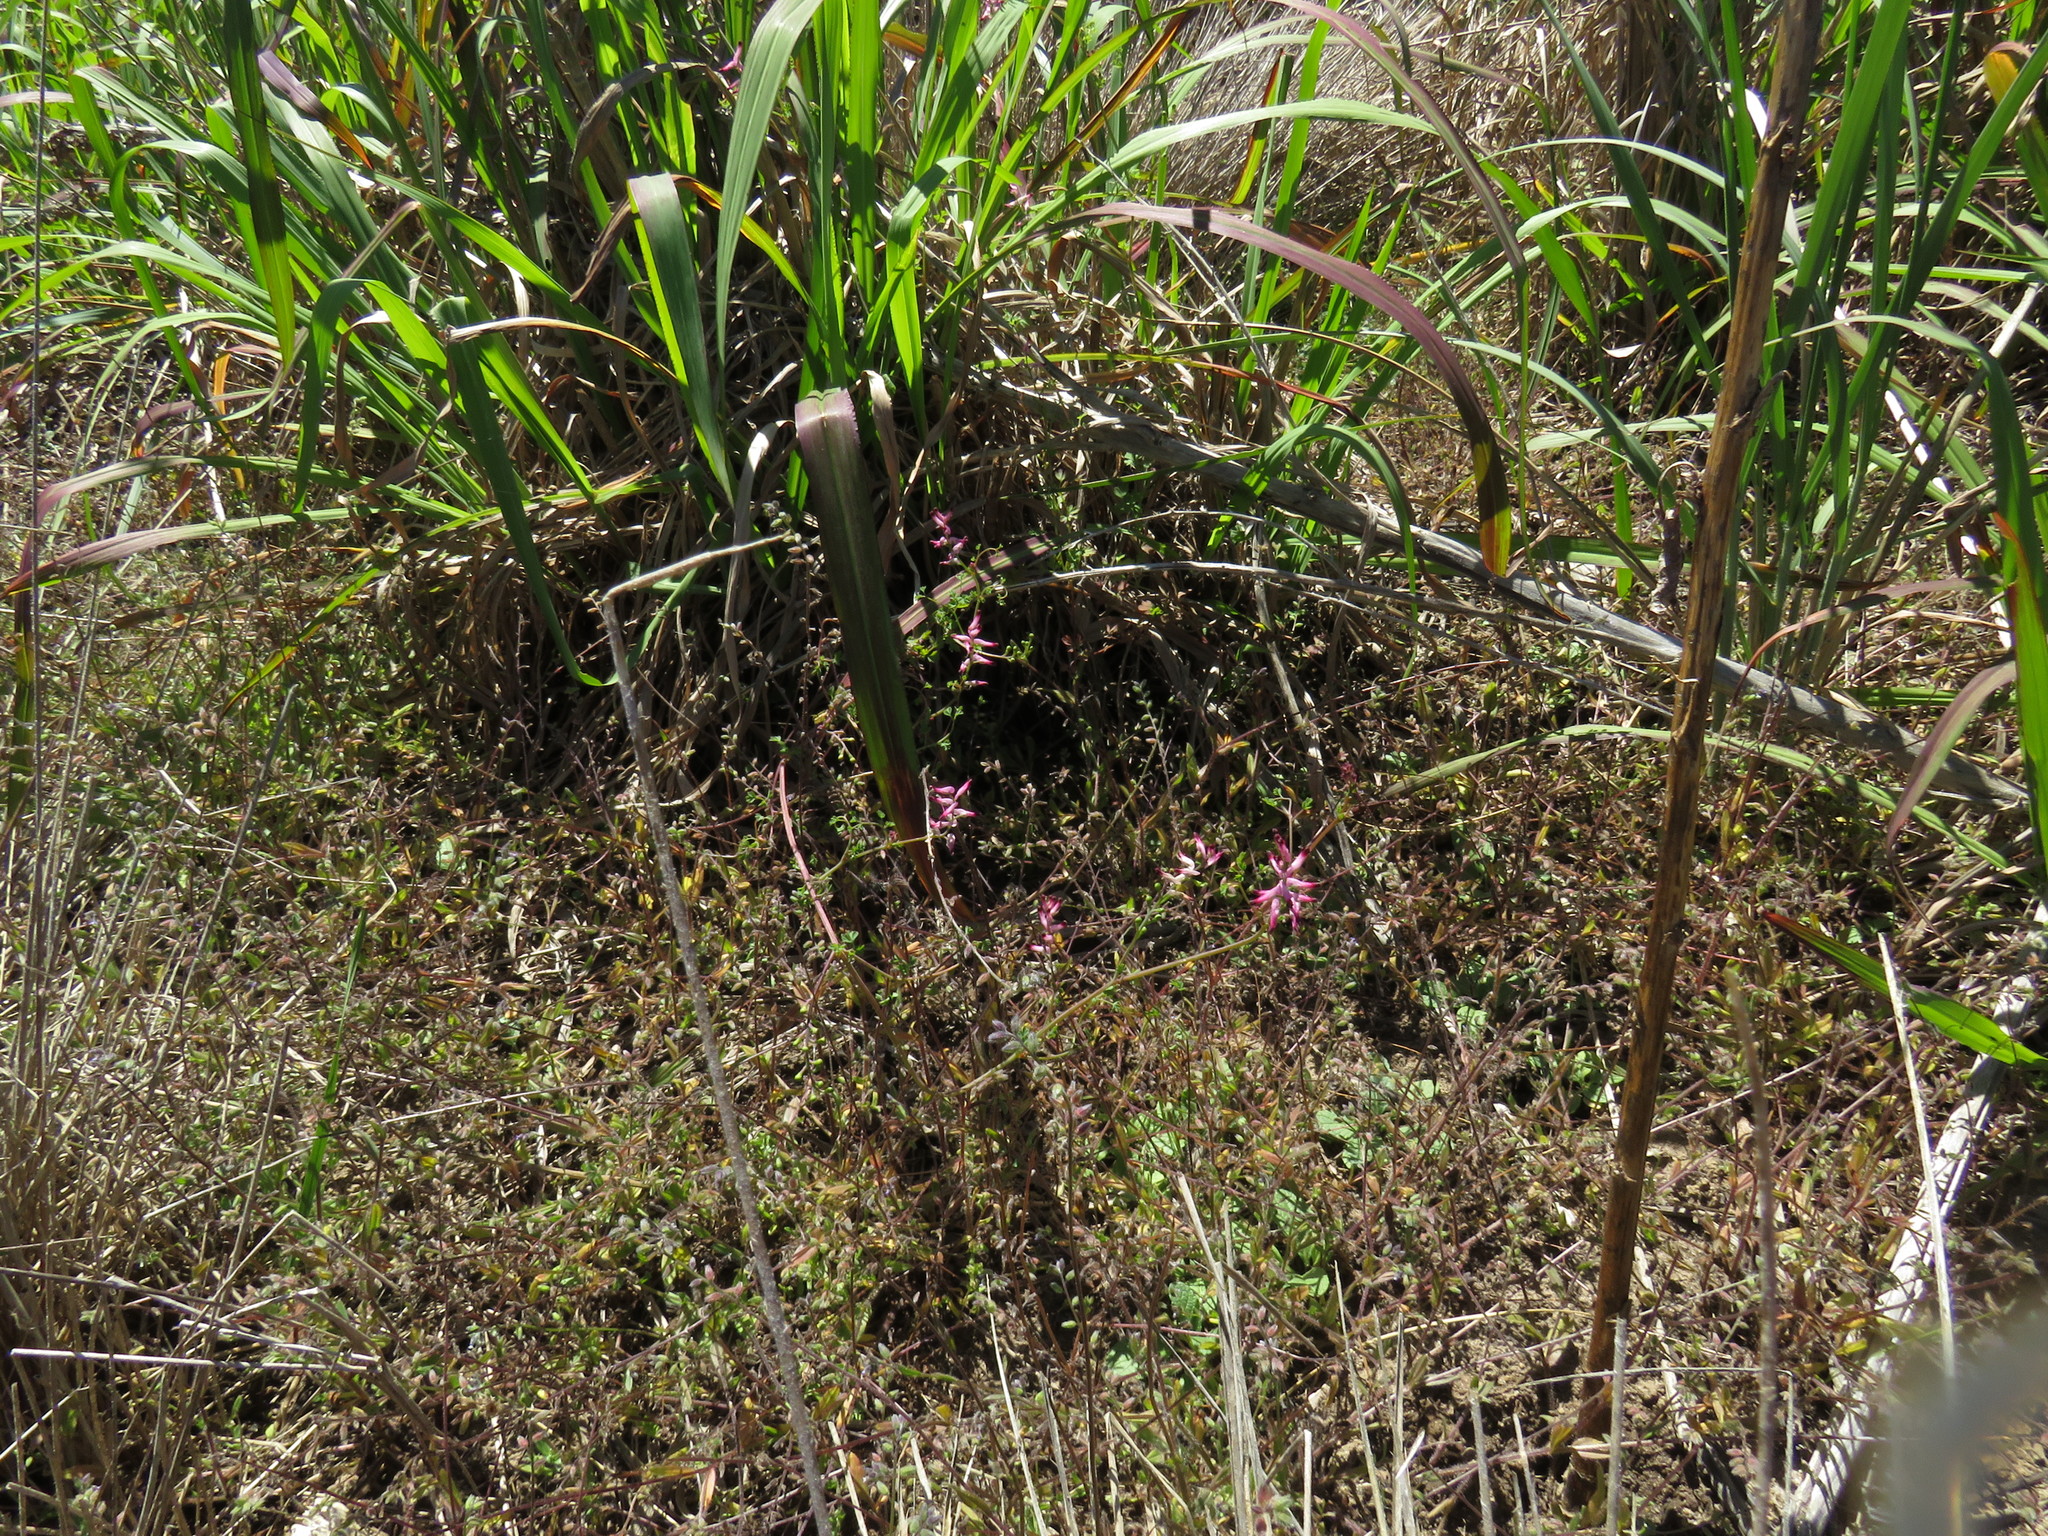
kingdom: Plantae
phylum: Tracheophyta
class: Magnoliopsida
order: Ranunculales
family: Papaveraceae
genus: Fumaria
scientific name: Fumaria muralis
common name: Common ramping-fumitory
